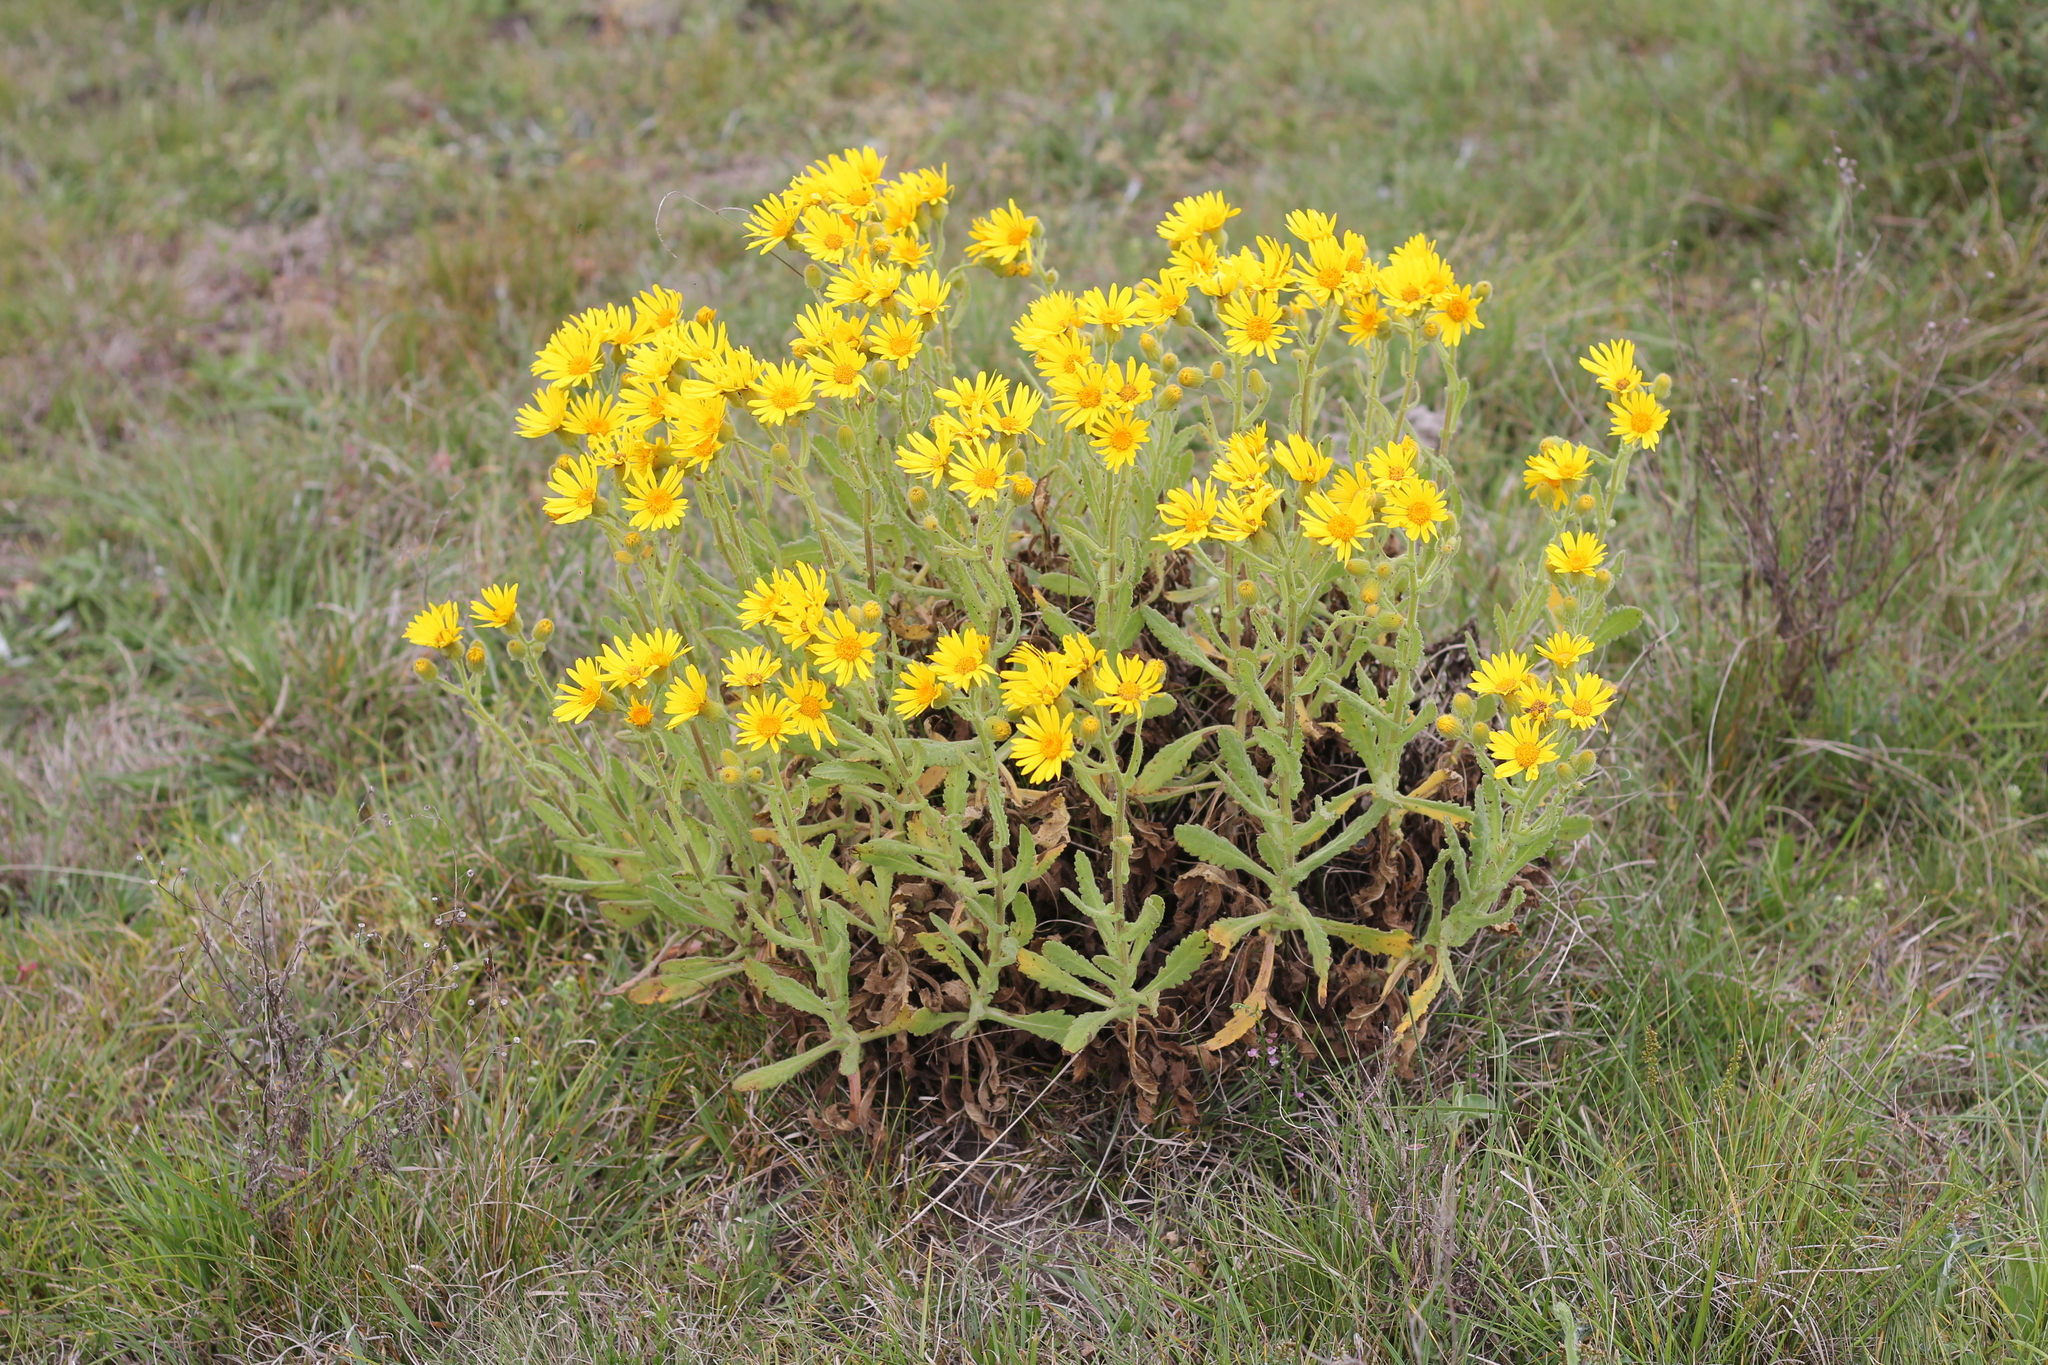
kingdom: Plantae
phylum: Tracheophyta
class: Magnoliopsida
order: Asterales
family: Asteraceae
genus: Senecio
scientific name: Senecio selloi
